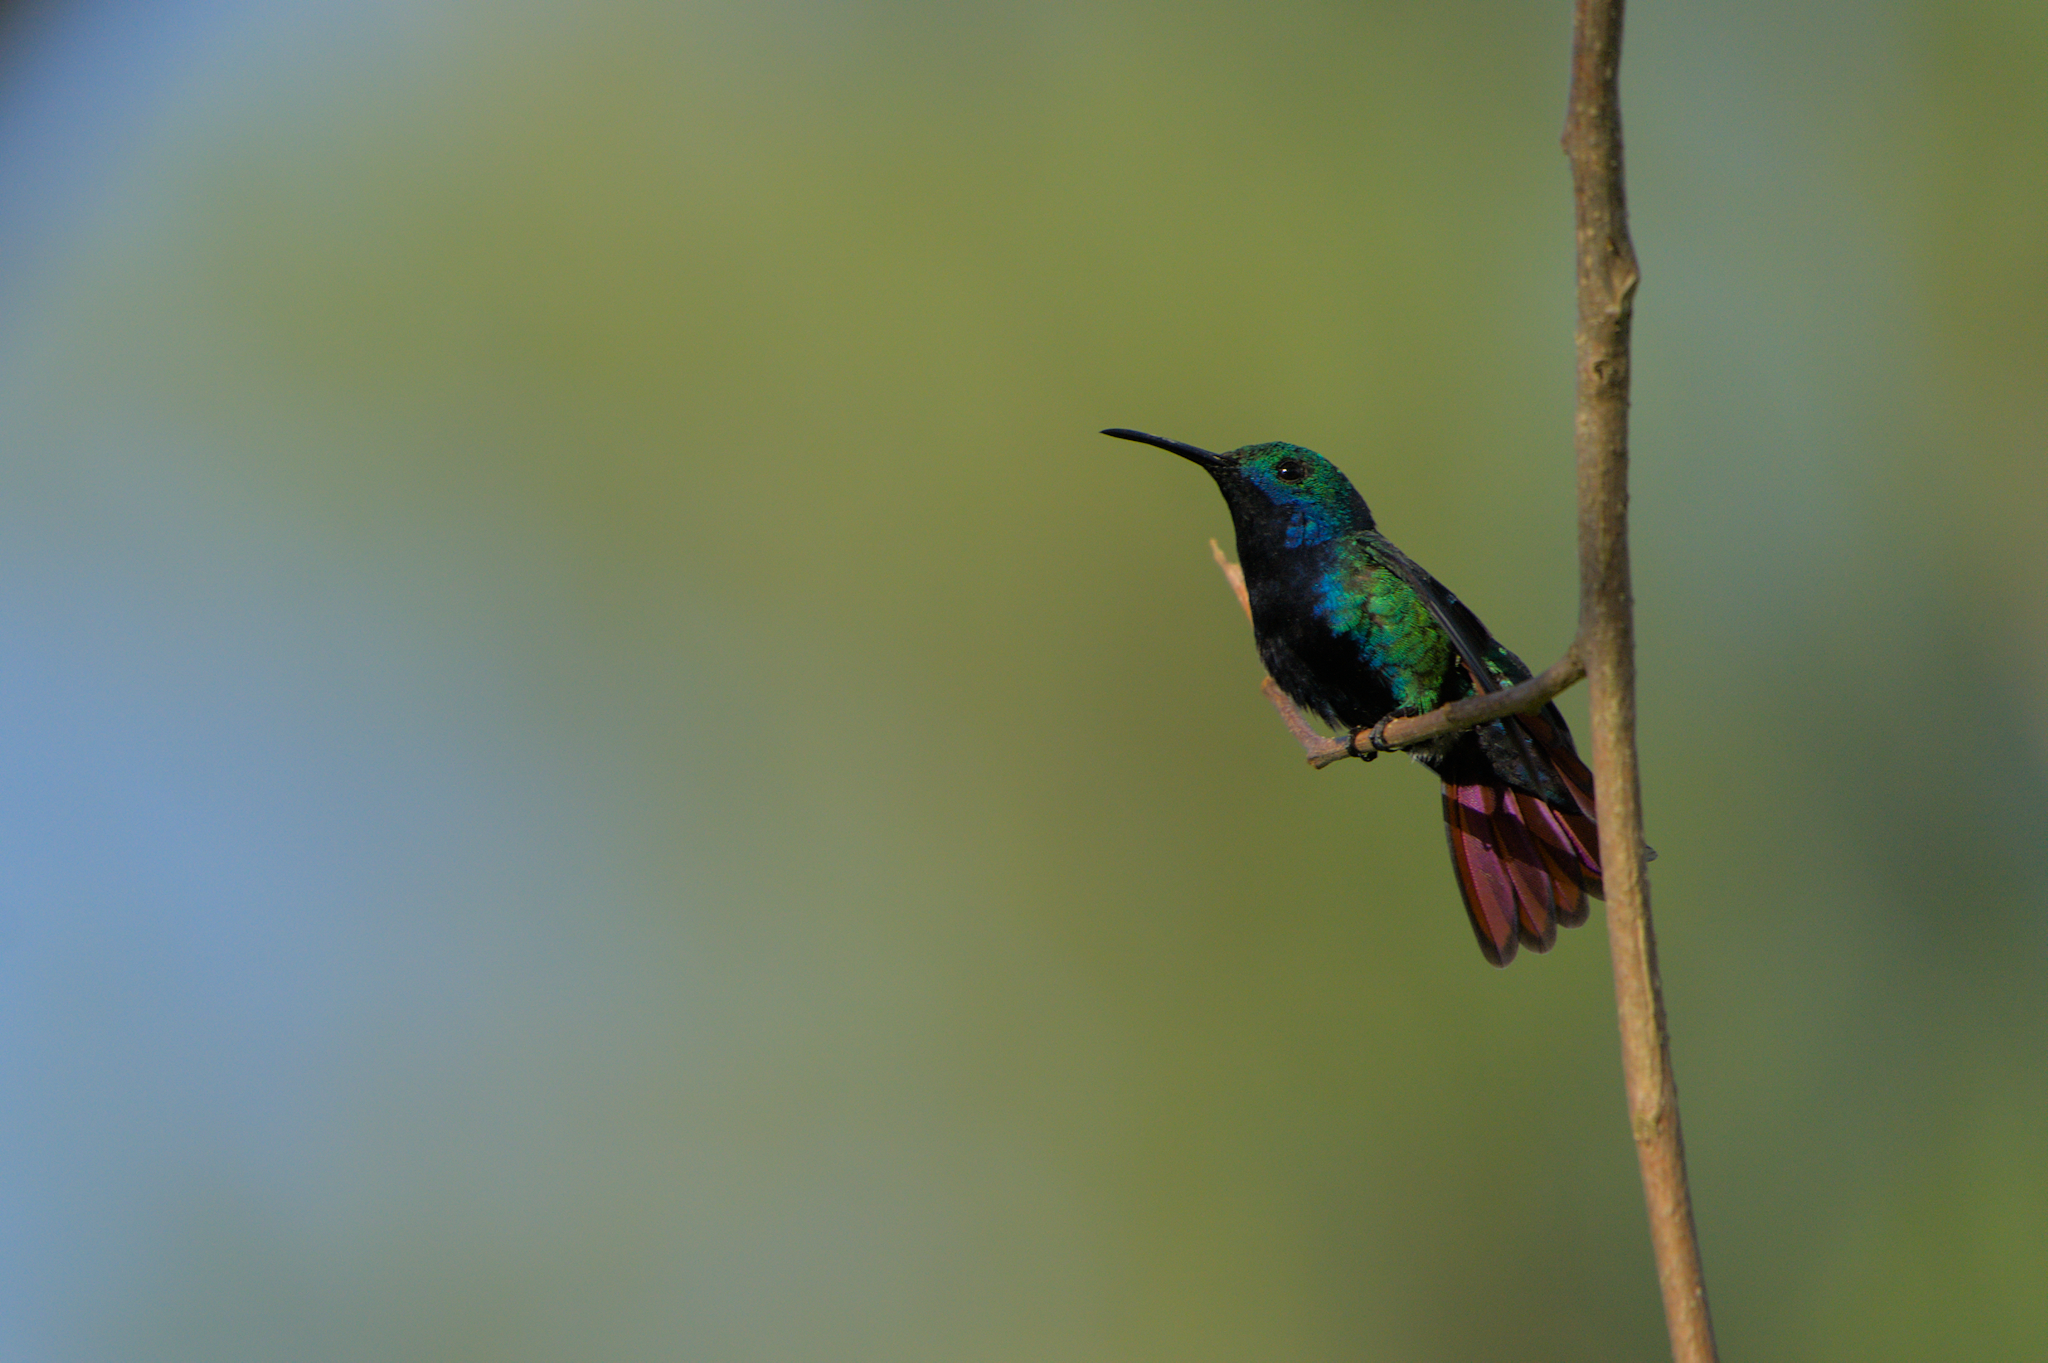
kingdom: Animalia
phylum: Chordata
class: Aves
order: Apodiformes
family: Trochilidae
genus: Anthracothorax
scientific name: Anthracothorax nigricollis
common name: Black-throated mango
